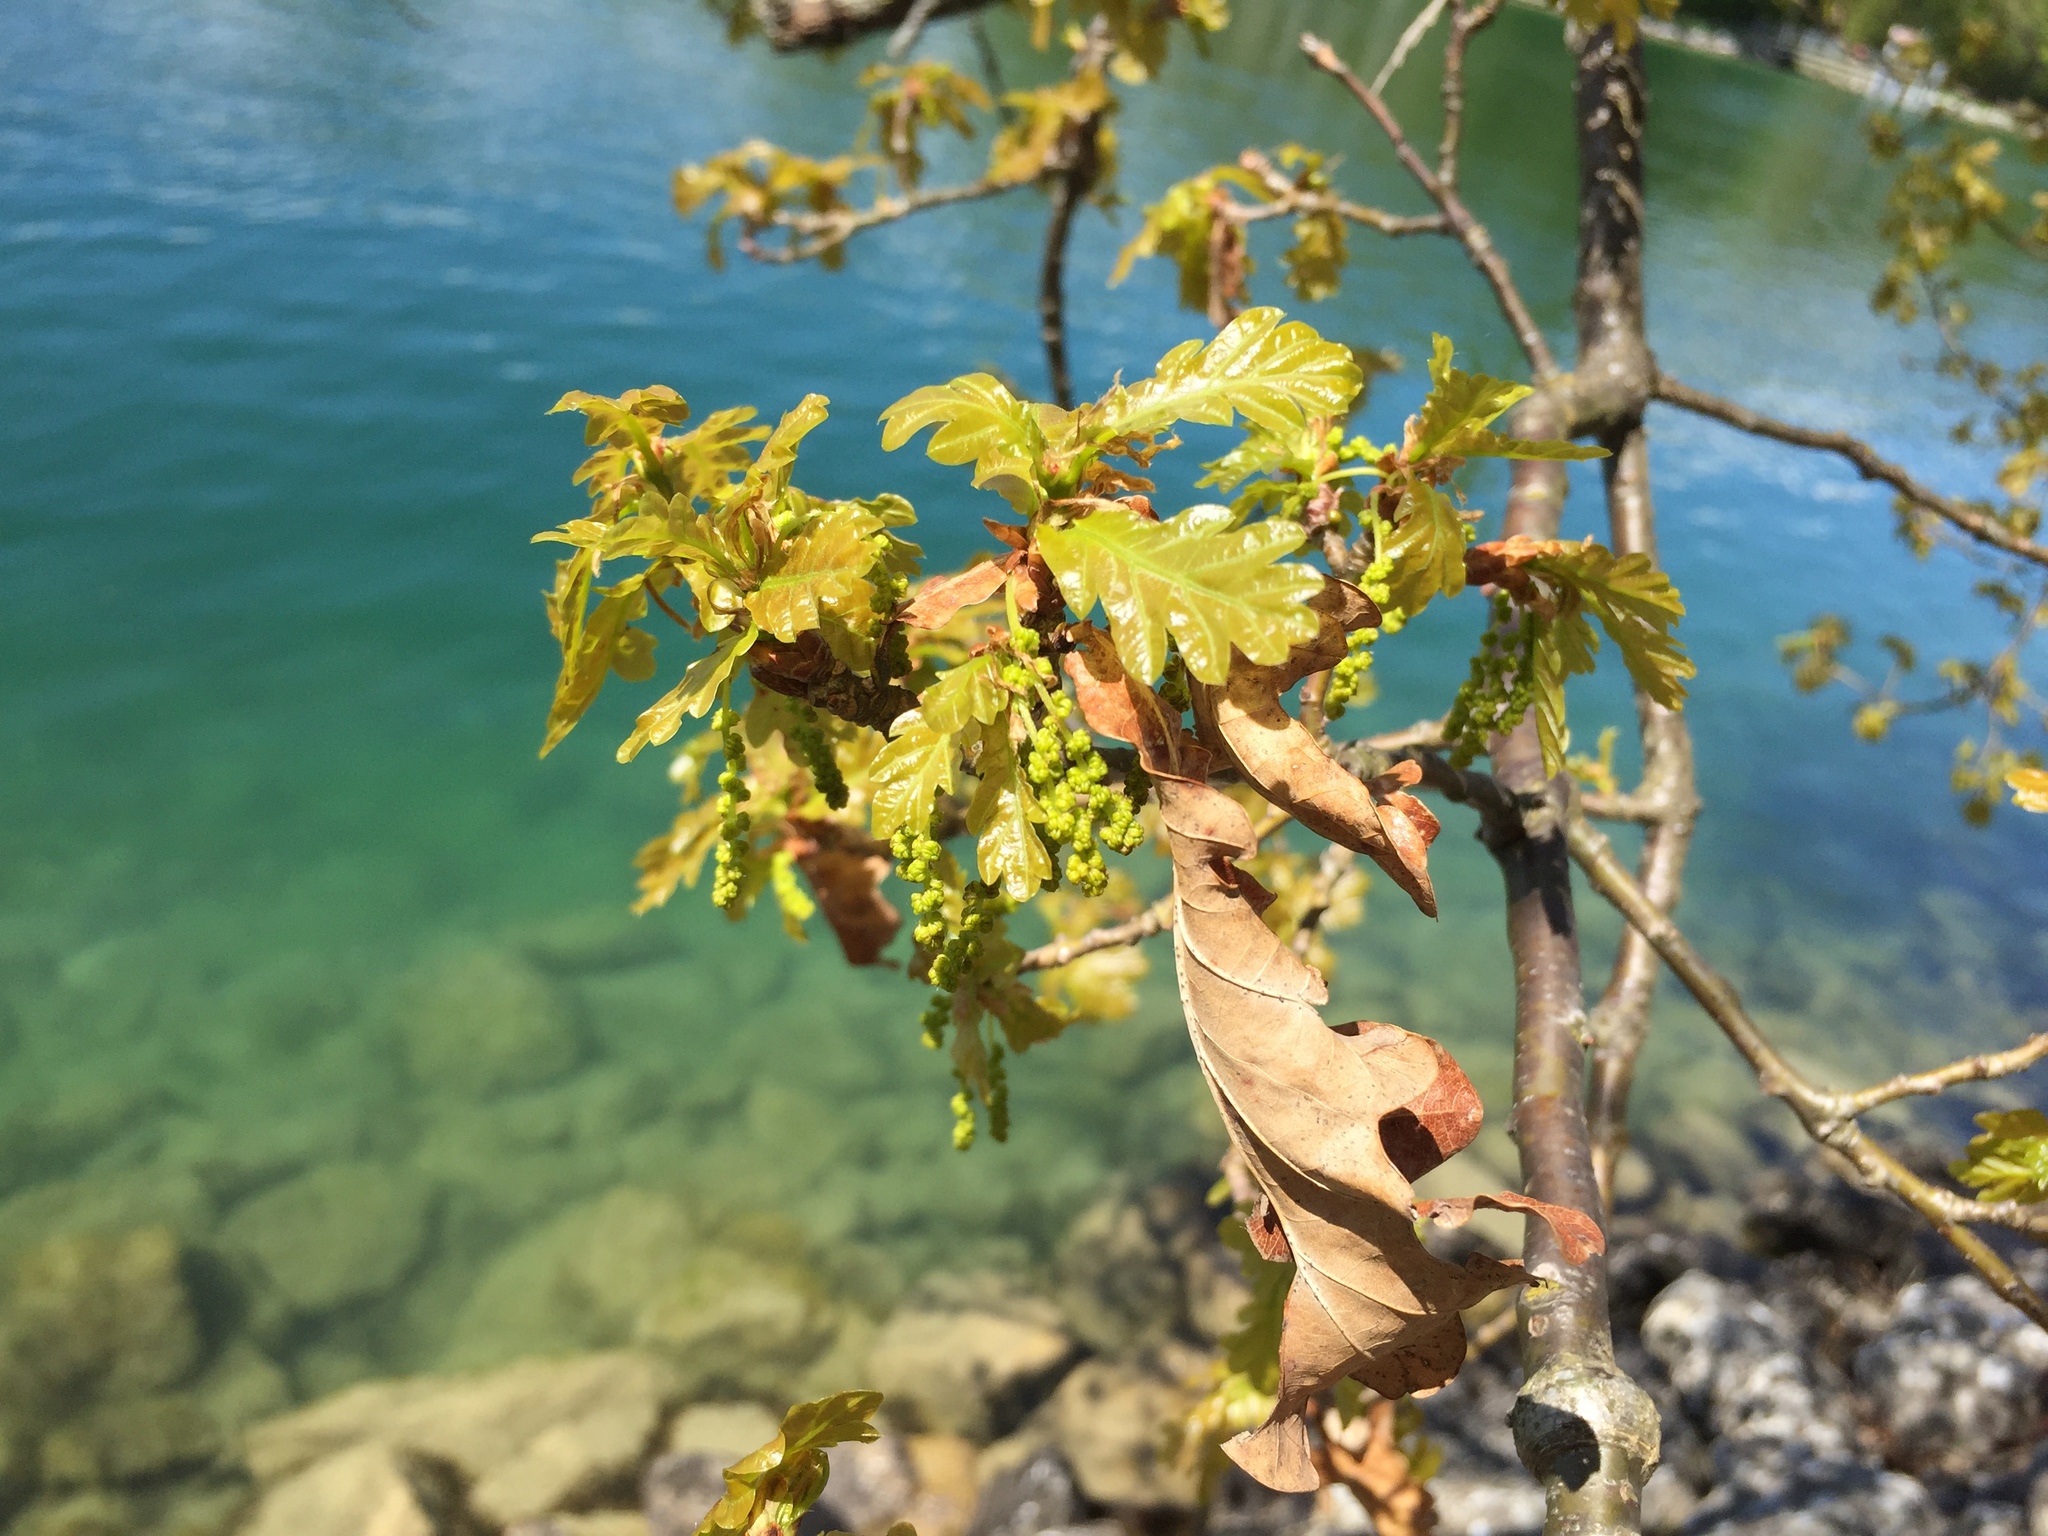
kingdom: Plantae
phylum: Tracheophyta
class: Magnoliopsida
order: Fagales
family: Fagaceae
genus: Quercus
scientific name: Quercus robur
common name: Pedunculate oak
